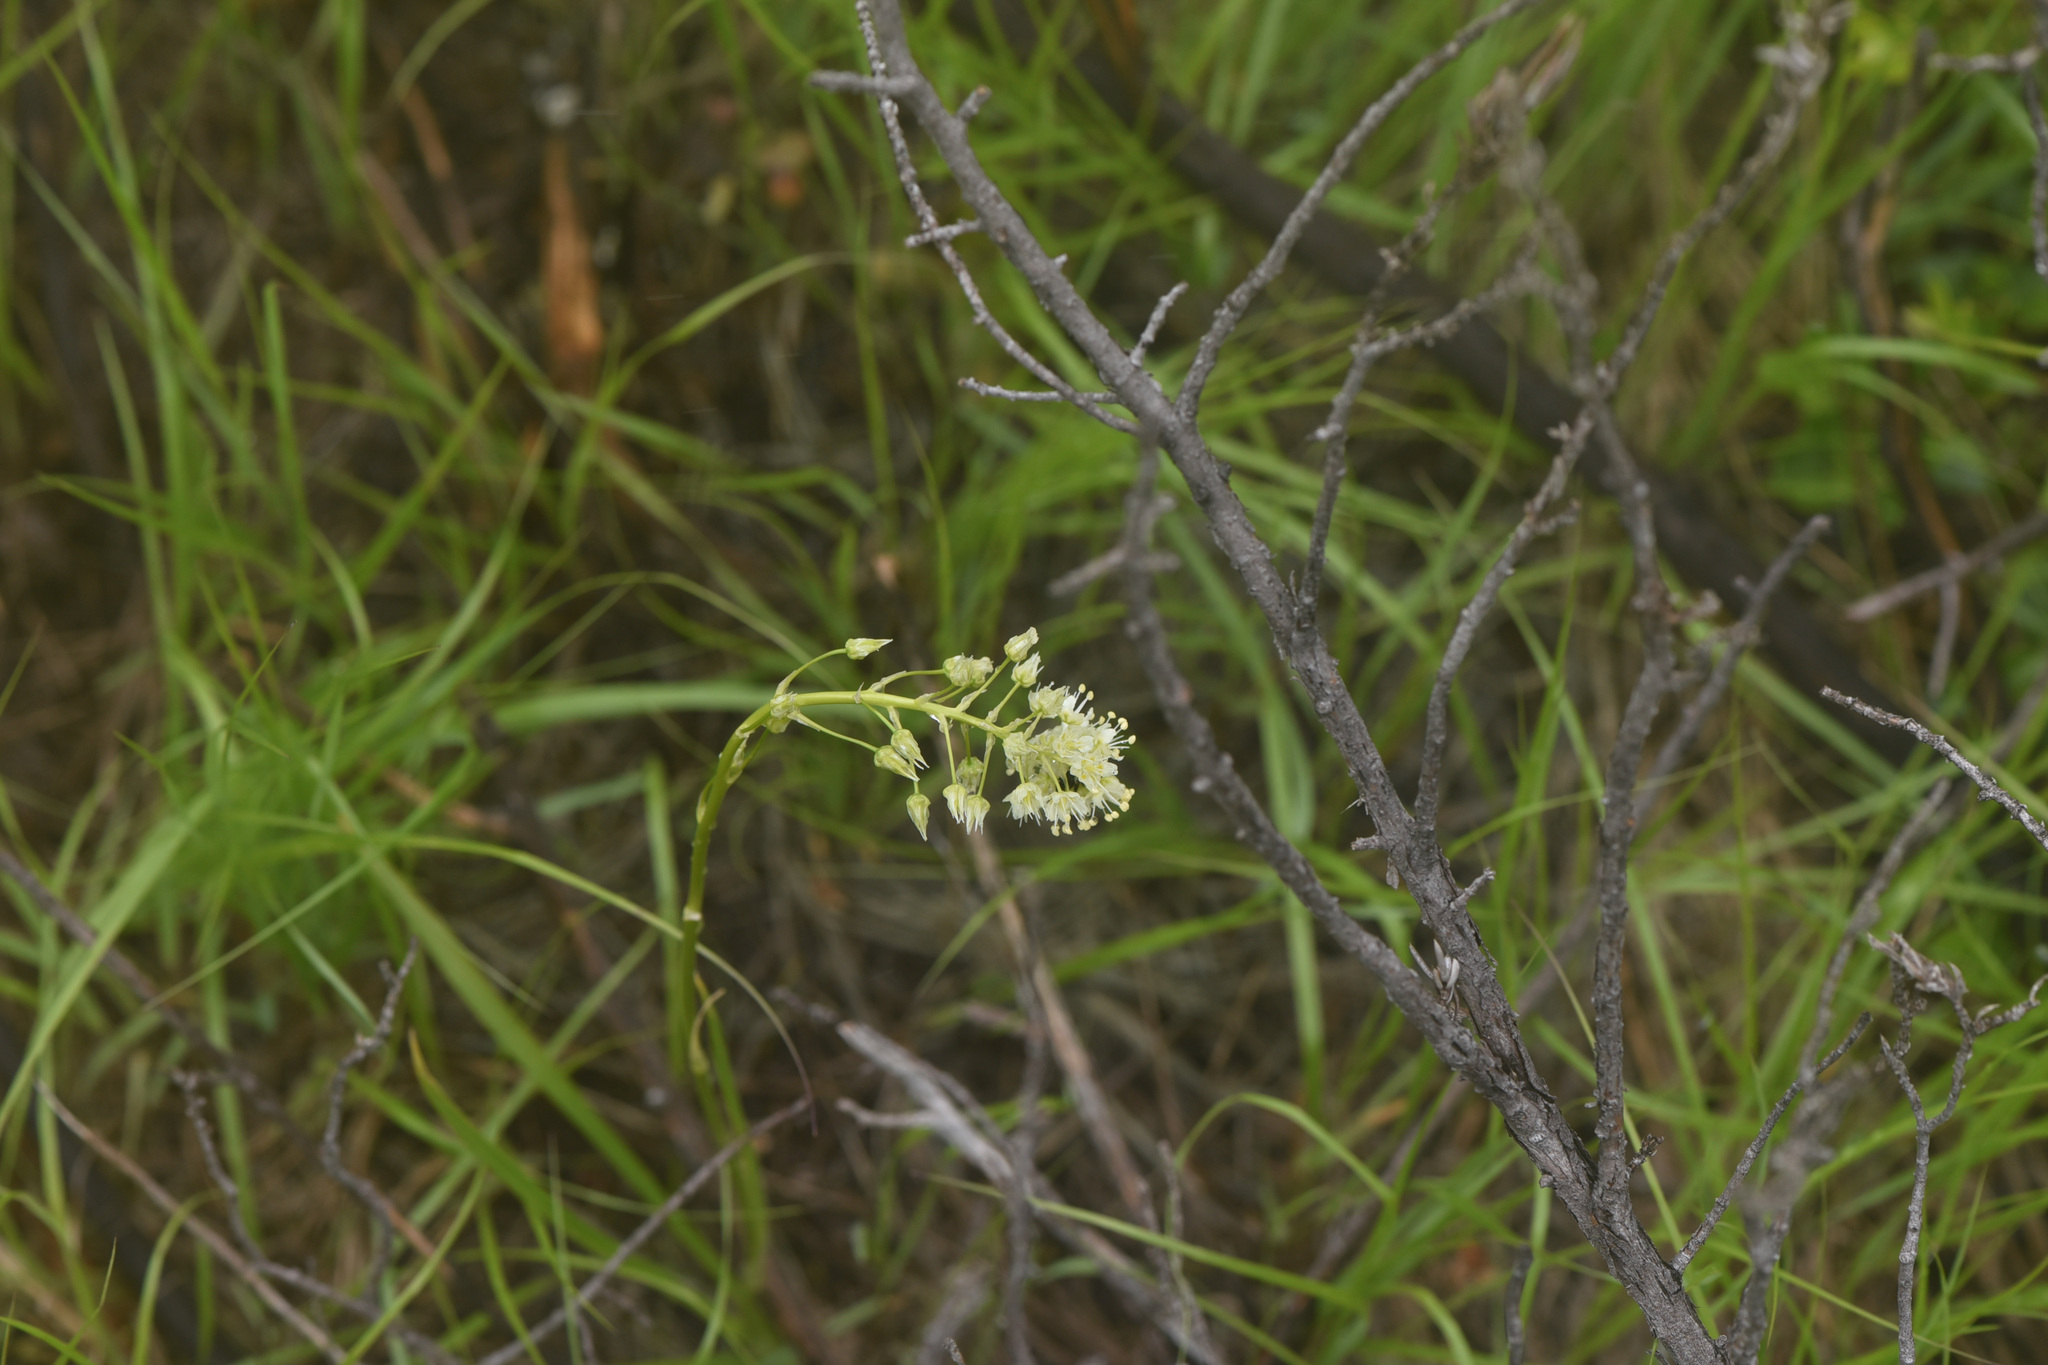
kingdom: Plantae
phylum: Tracheophyta
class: Liliopsida
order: Liliales
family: Melanthiaceae
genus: Toxicoscordion
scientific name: Toxicoscordion venenosum
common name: Meadow death camas
